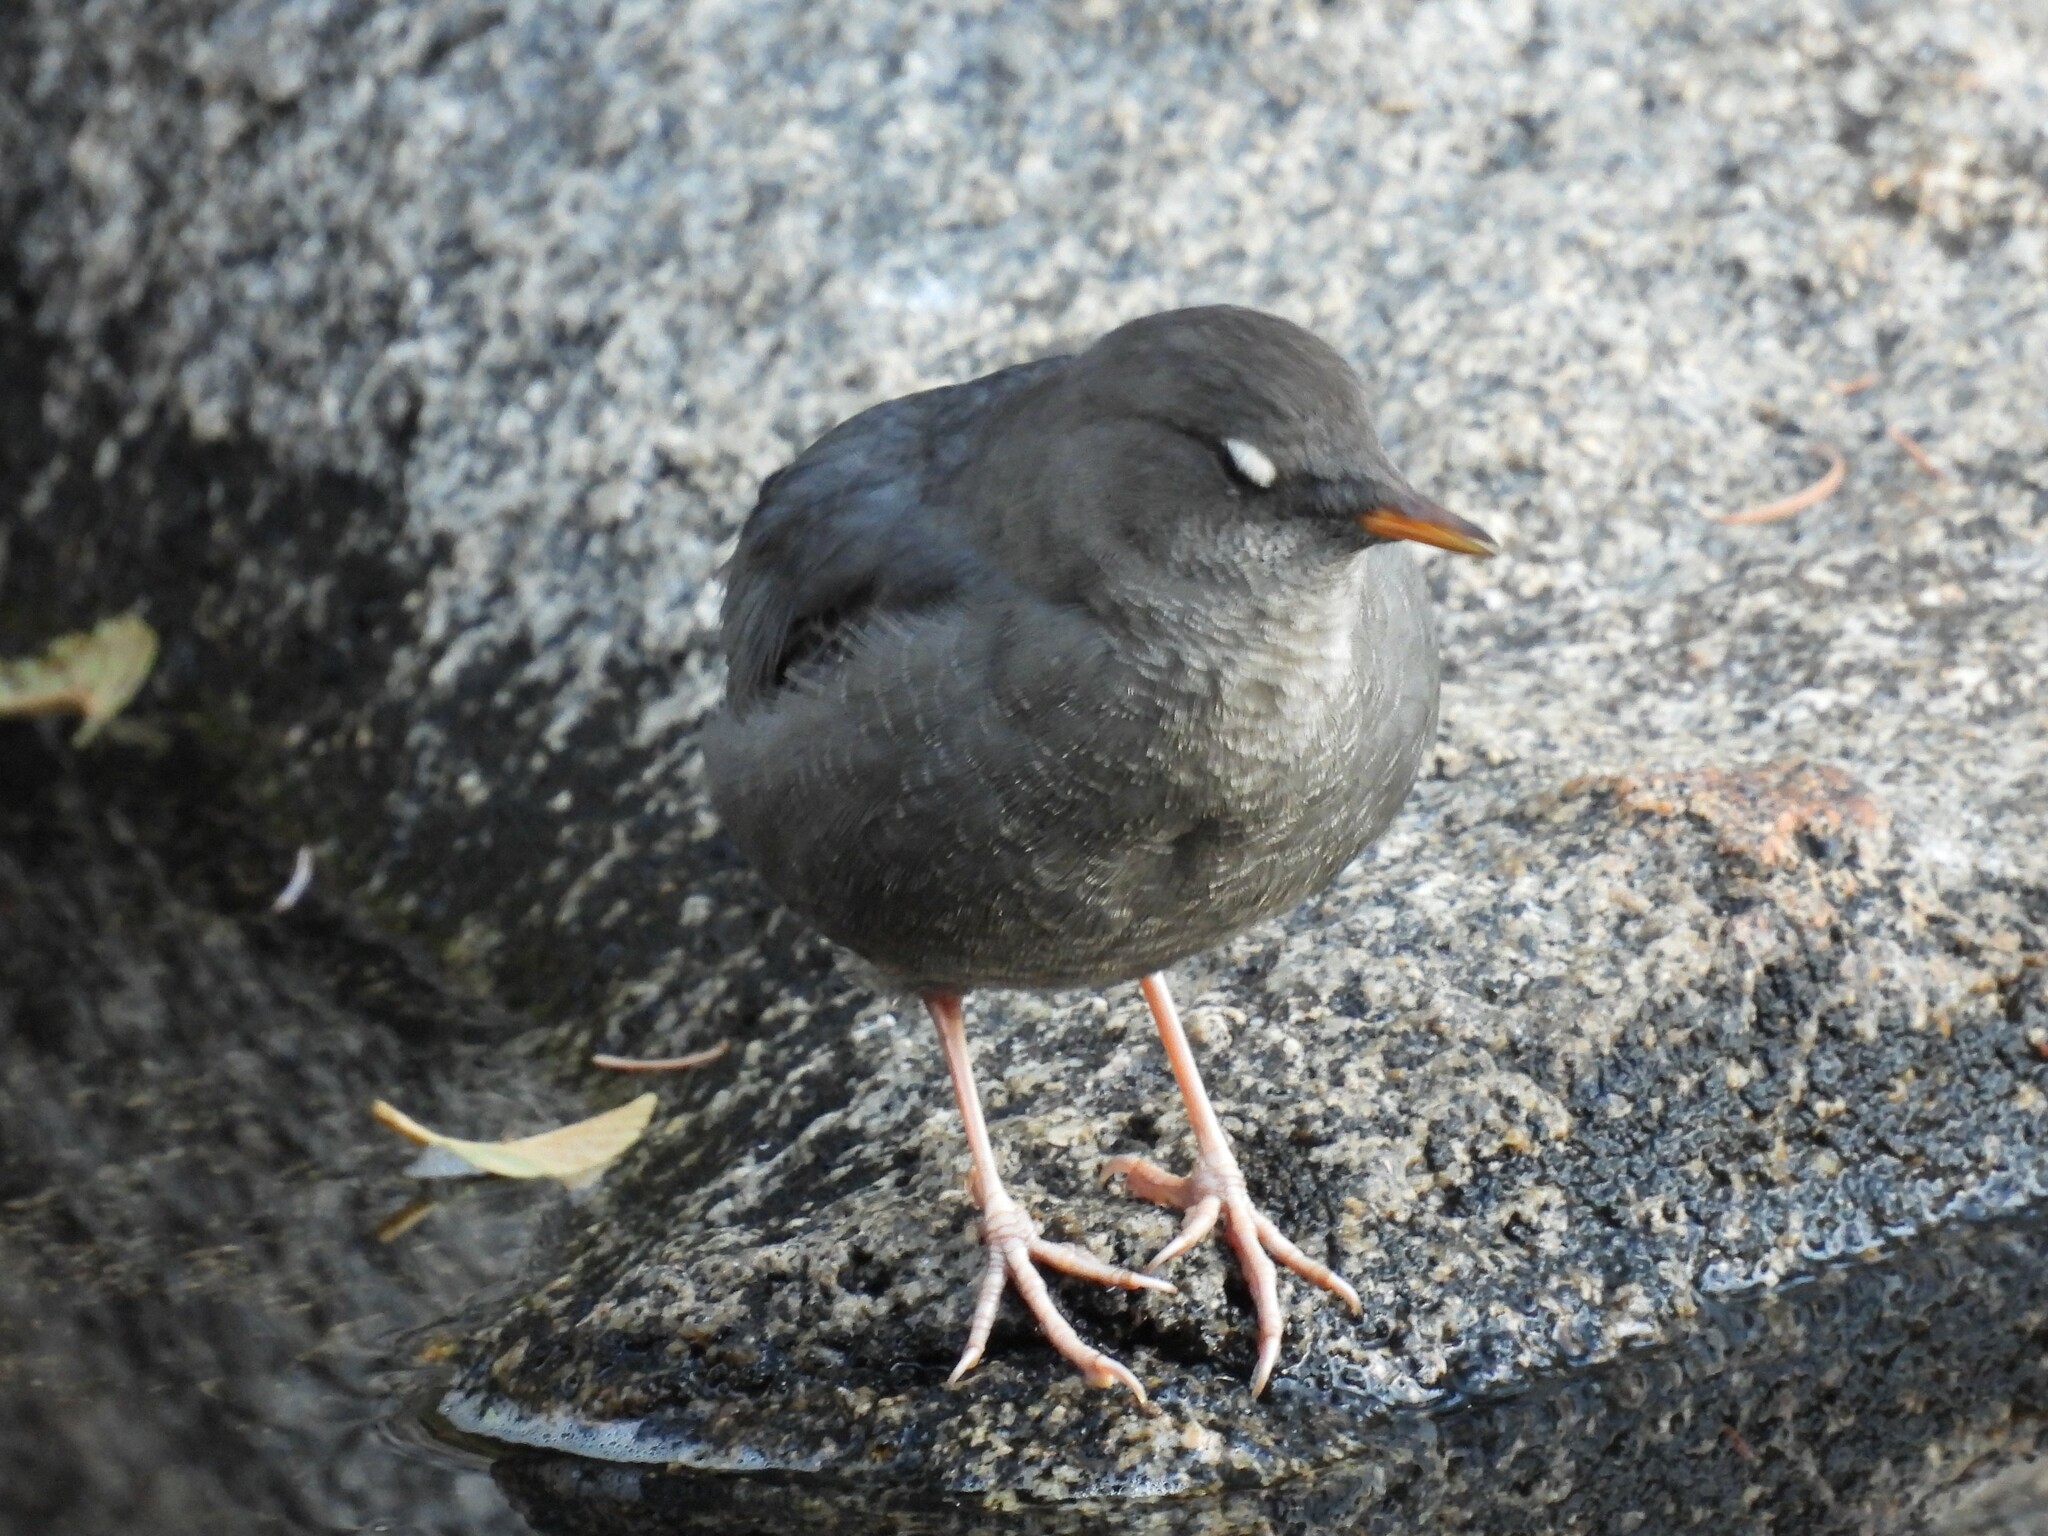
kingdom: Animalia
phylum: Chordata
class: Aves
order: Passeriformes
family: Cinclidae
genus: Cinclus
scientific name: Cinclus mexicanus
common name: American dipper
